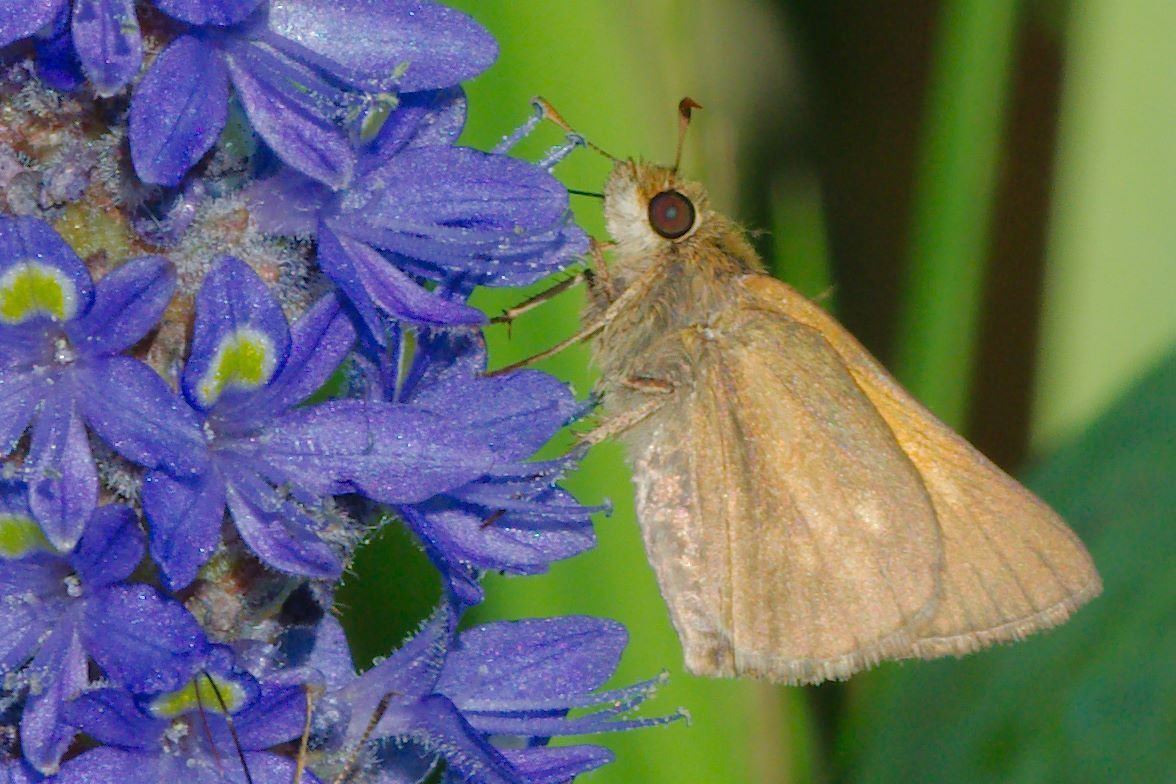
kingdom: Animalia
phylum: Arthropoda
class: Insecta
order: Lepidoptera
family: Hesperiidae
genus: Poanes
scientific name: Poanes aaroni
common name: Aaron's skipper
